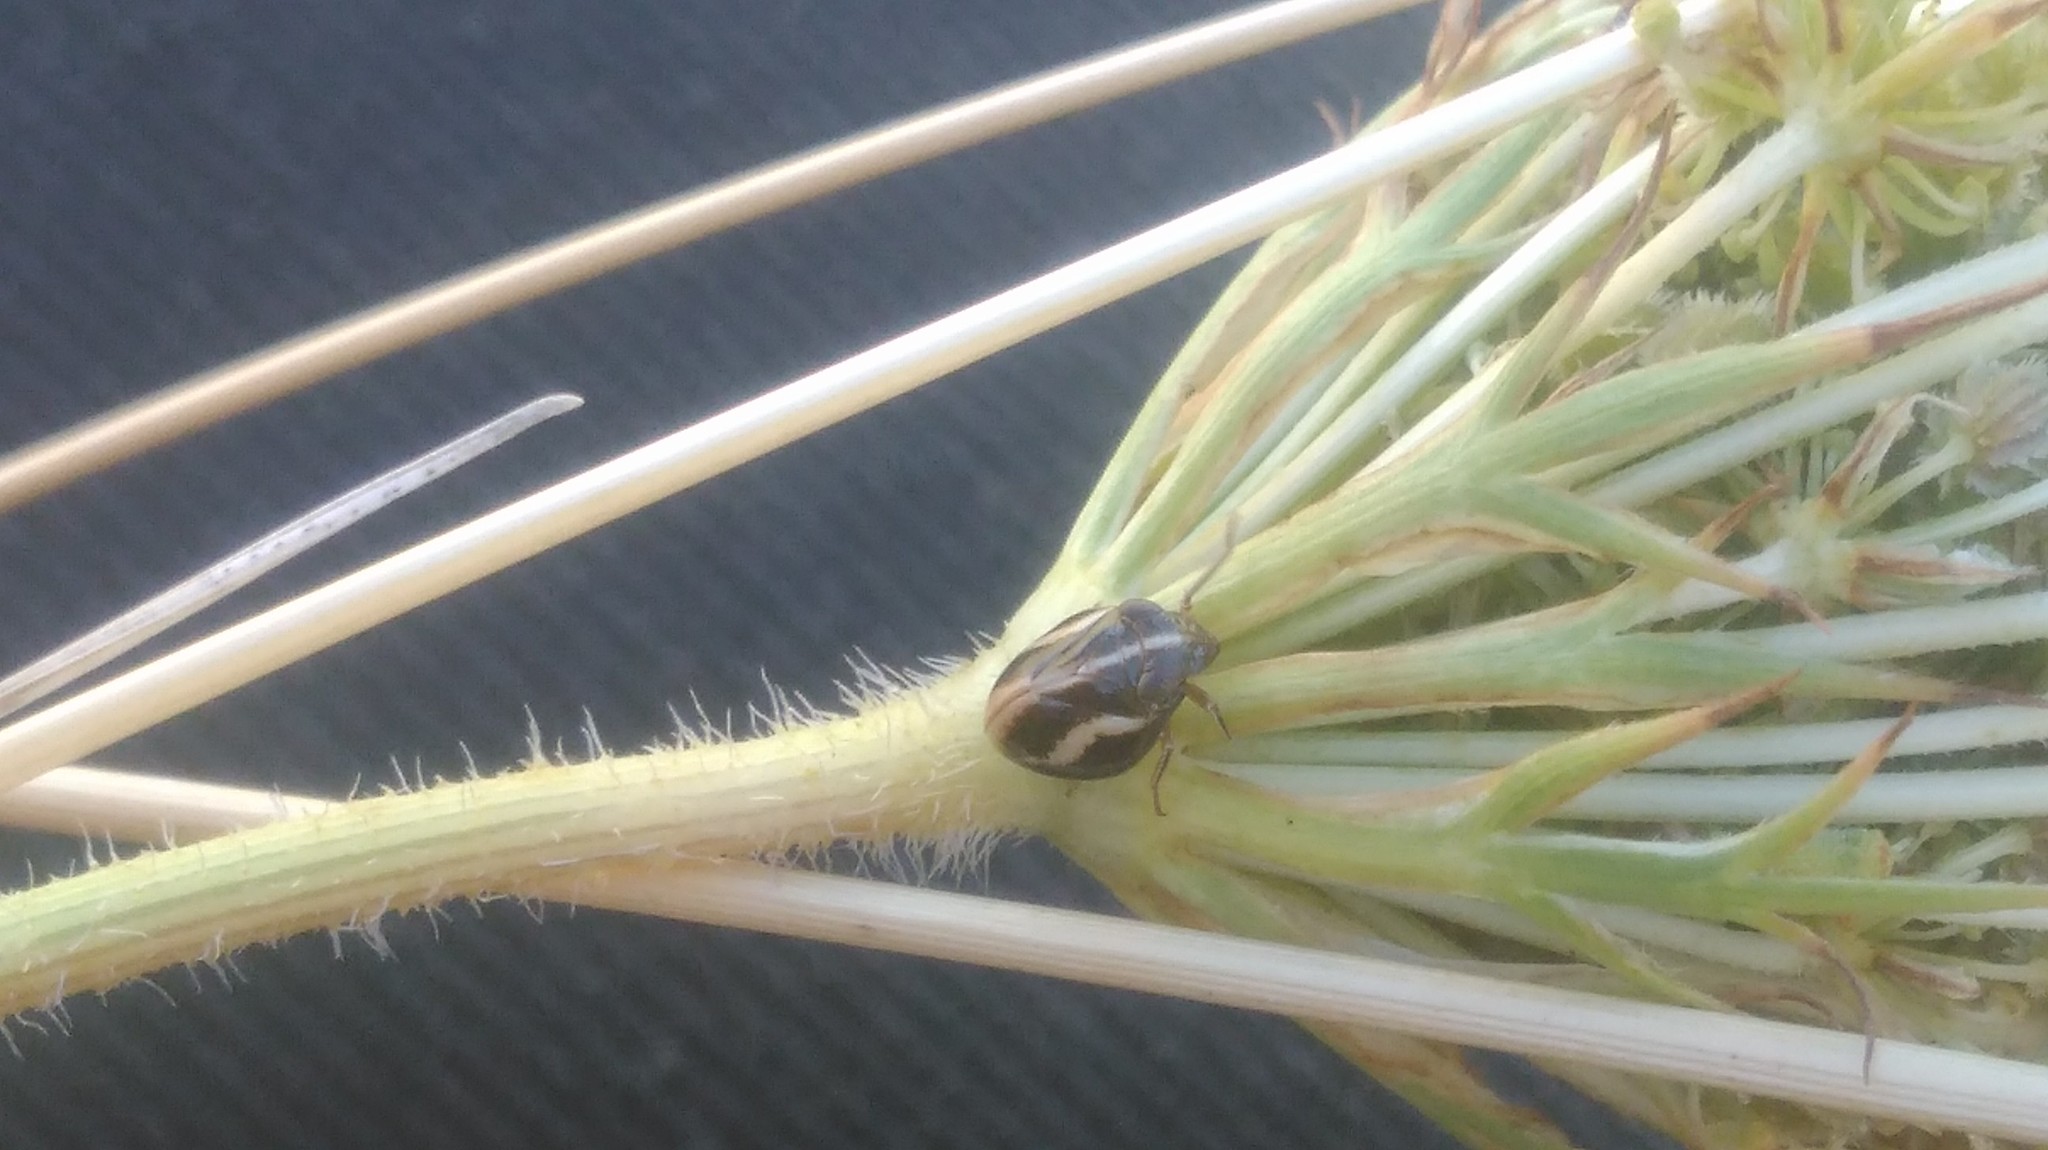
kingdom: Animalia
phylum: Arthropoda
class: Insecta
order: Hemiptera
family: Issidae
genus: Argepara
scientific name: Argepara lyra
